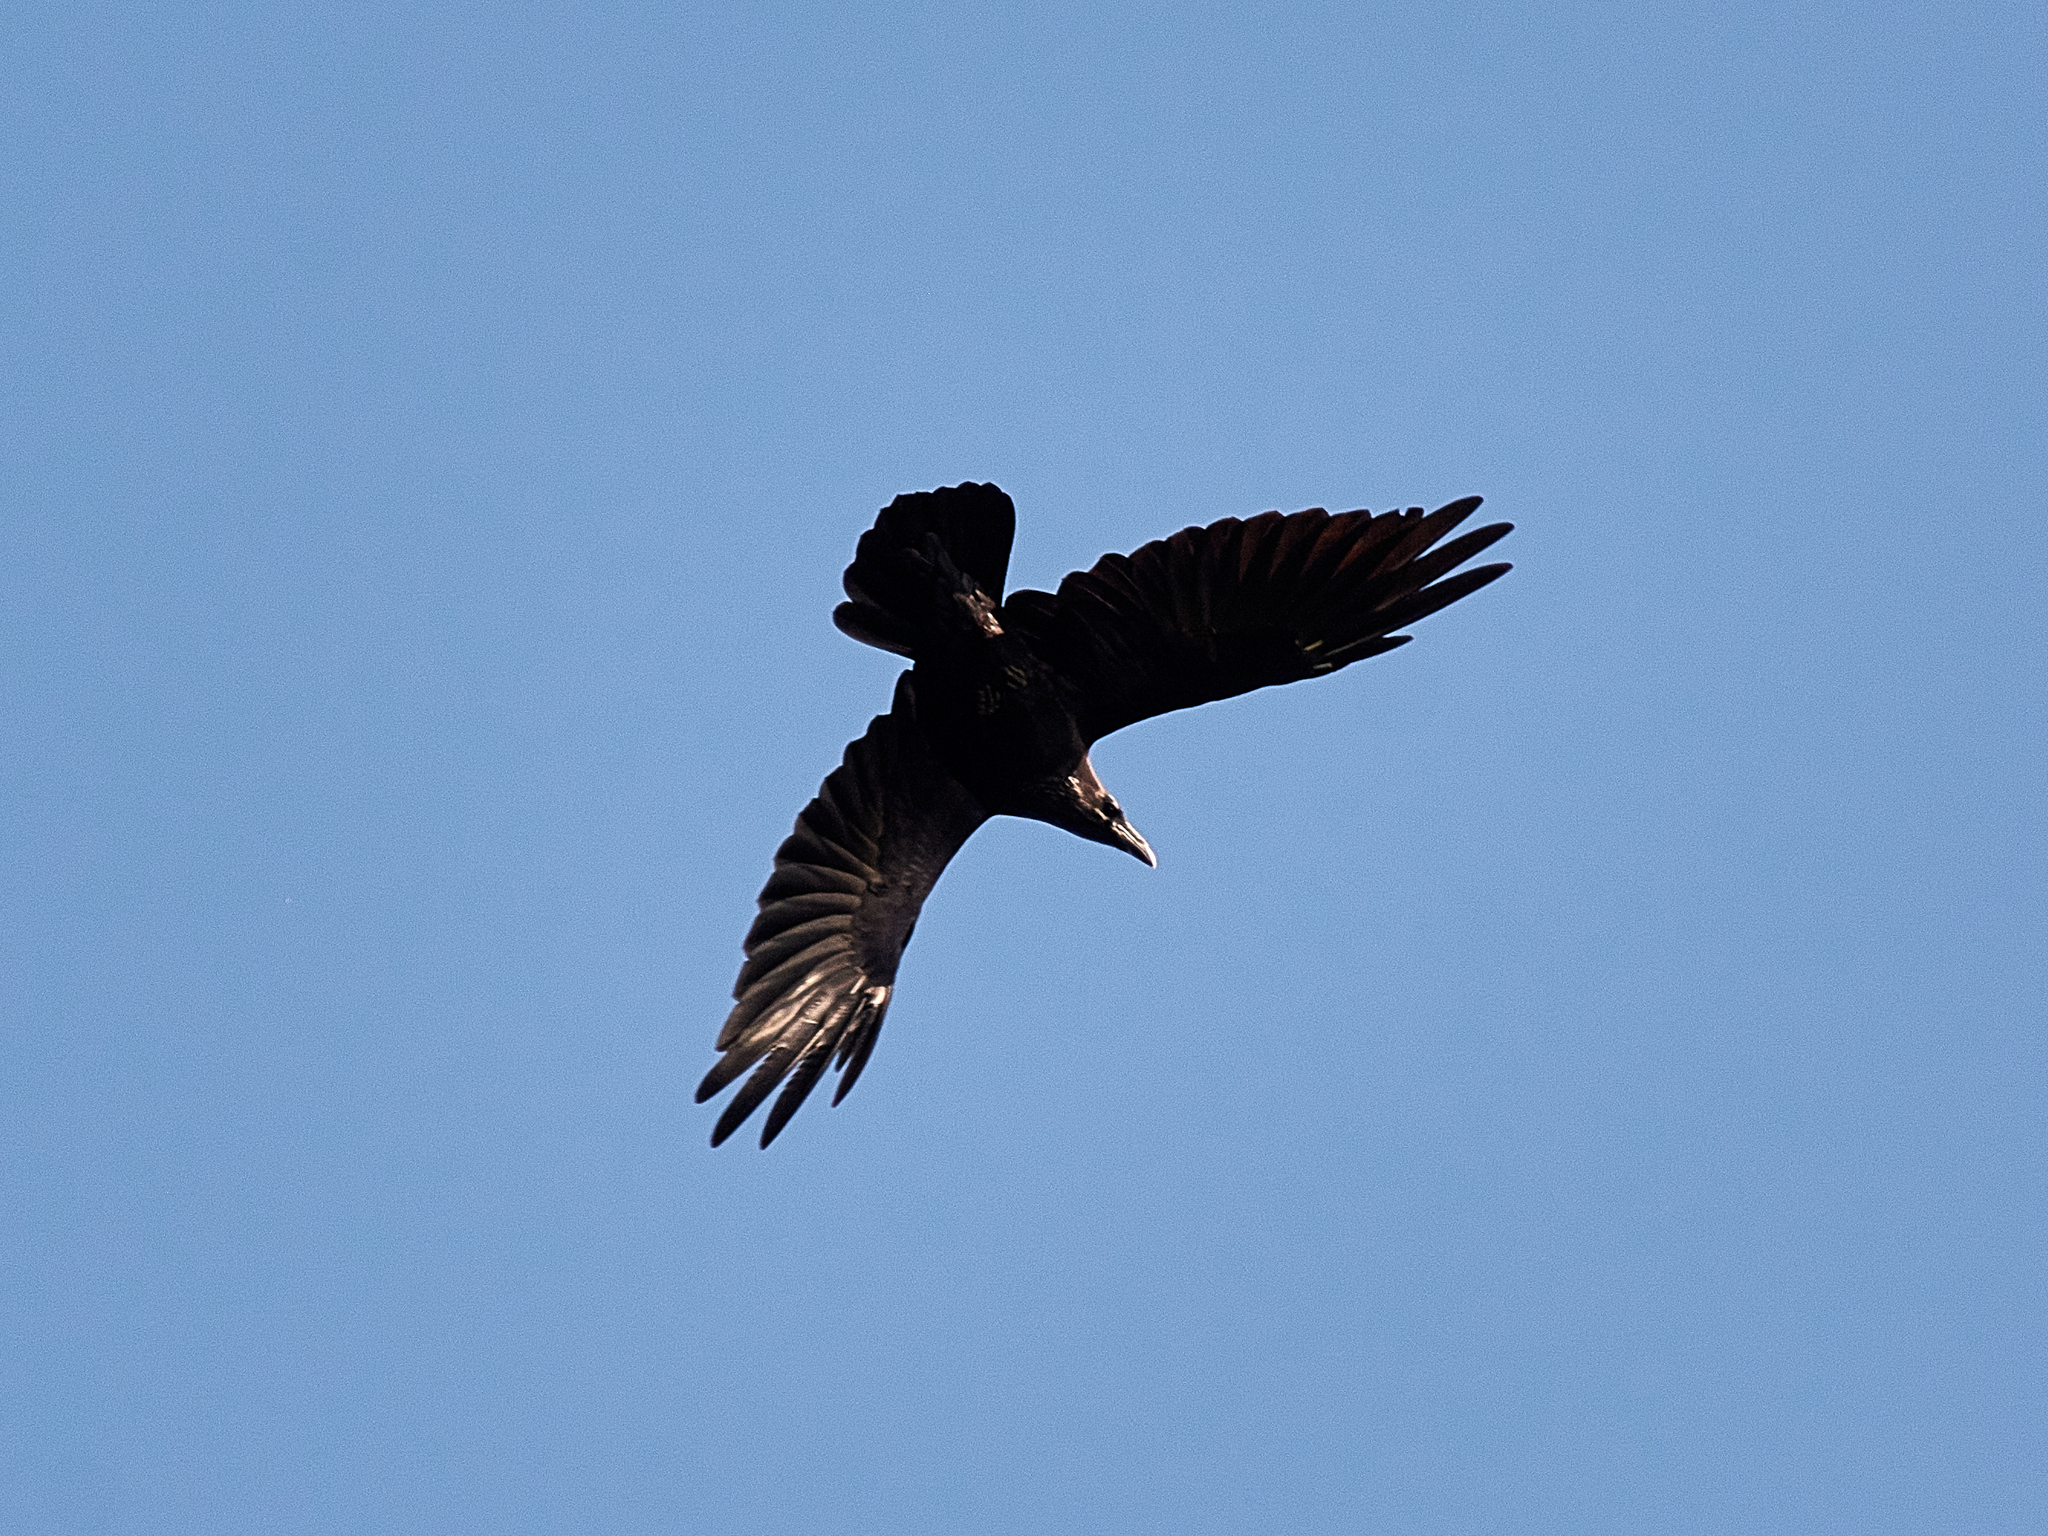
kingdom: Animalia
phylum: Chordata
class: Aves
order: Passeriformes
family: Corvidae
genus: Corvus
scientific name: Corvus corax
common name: Common raven
